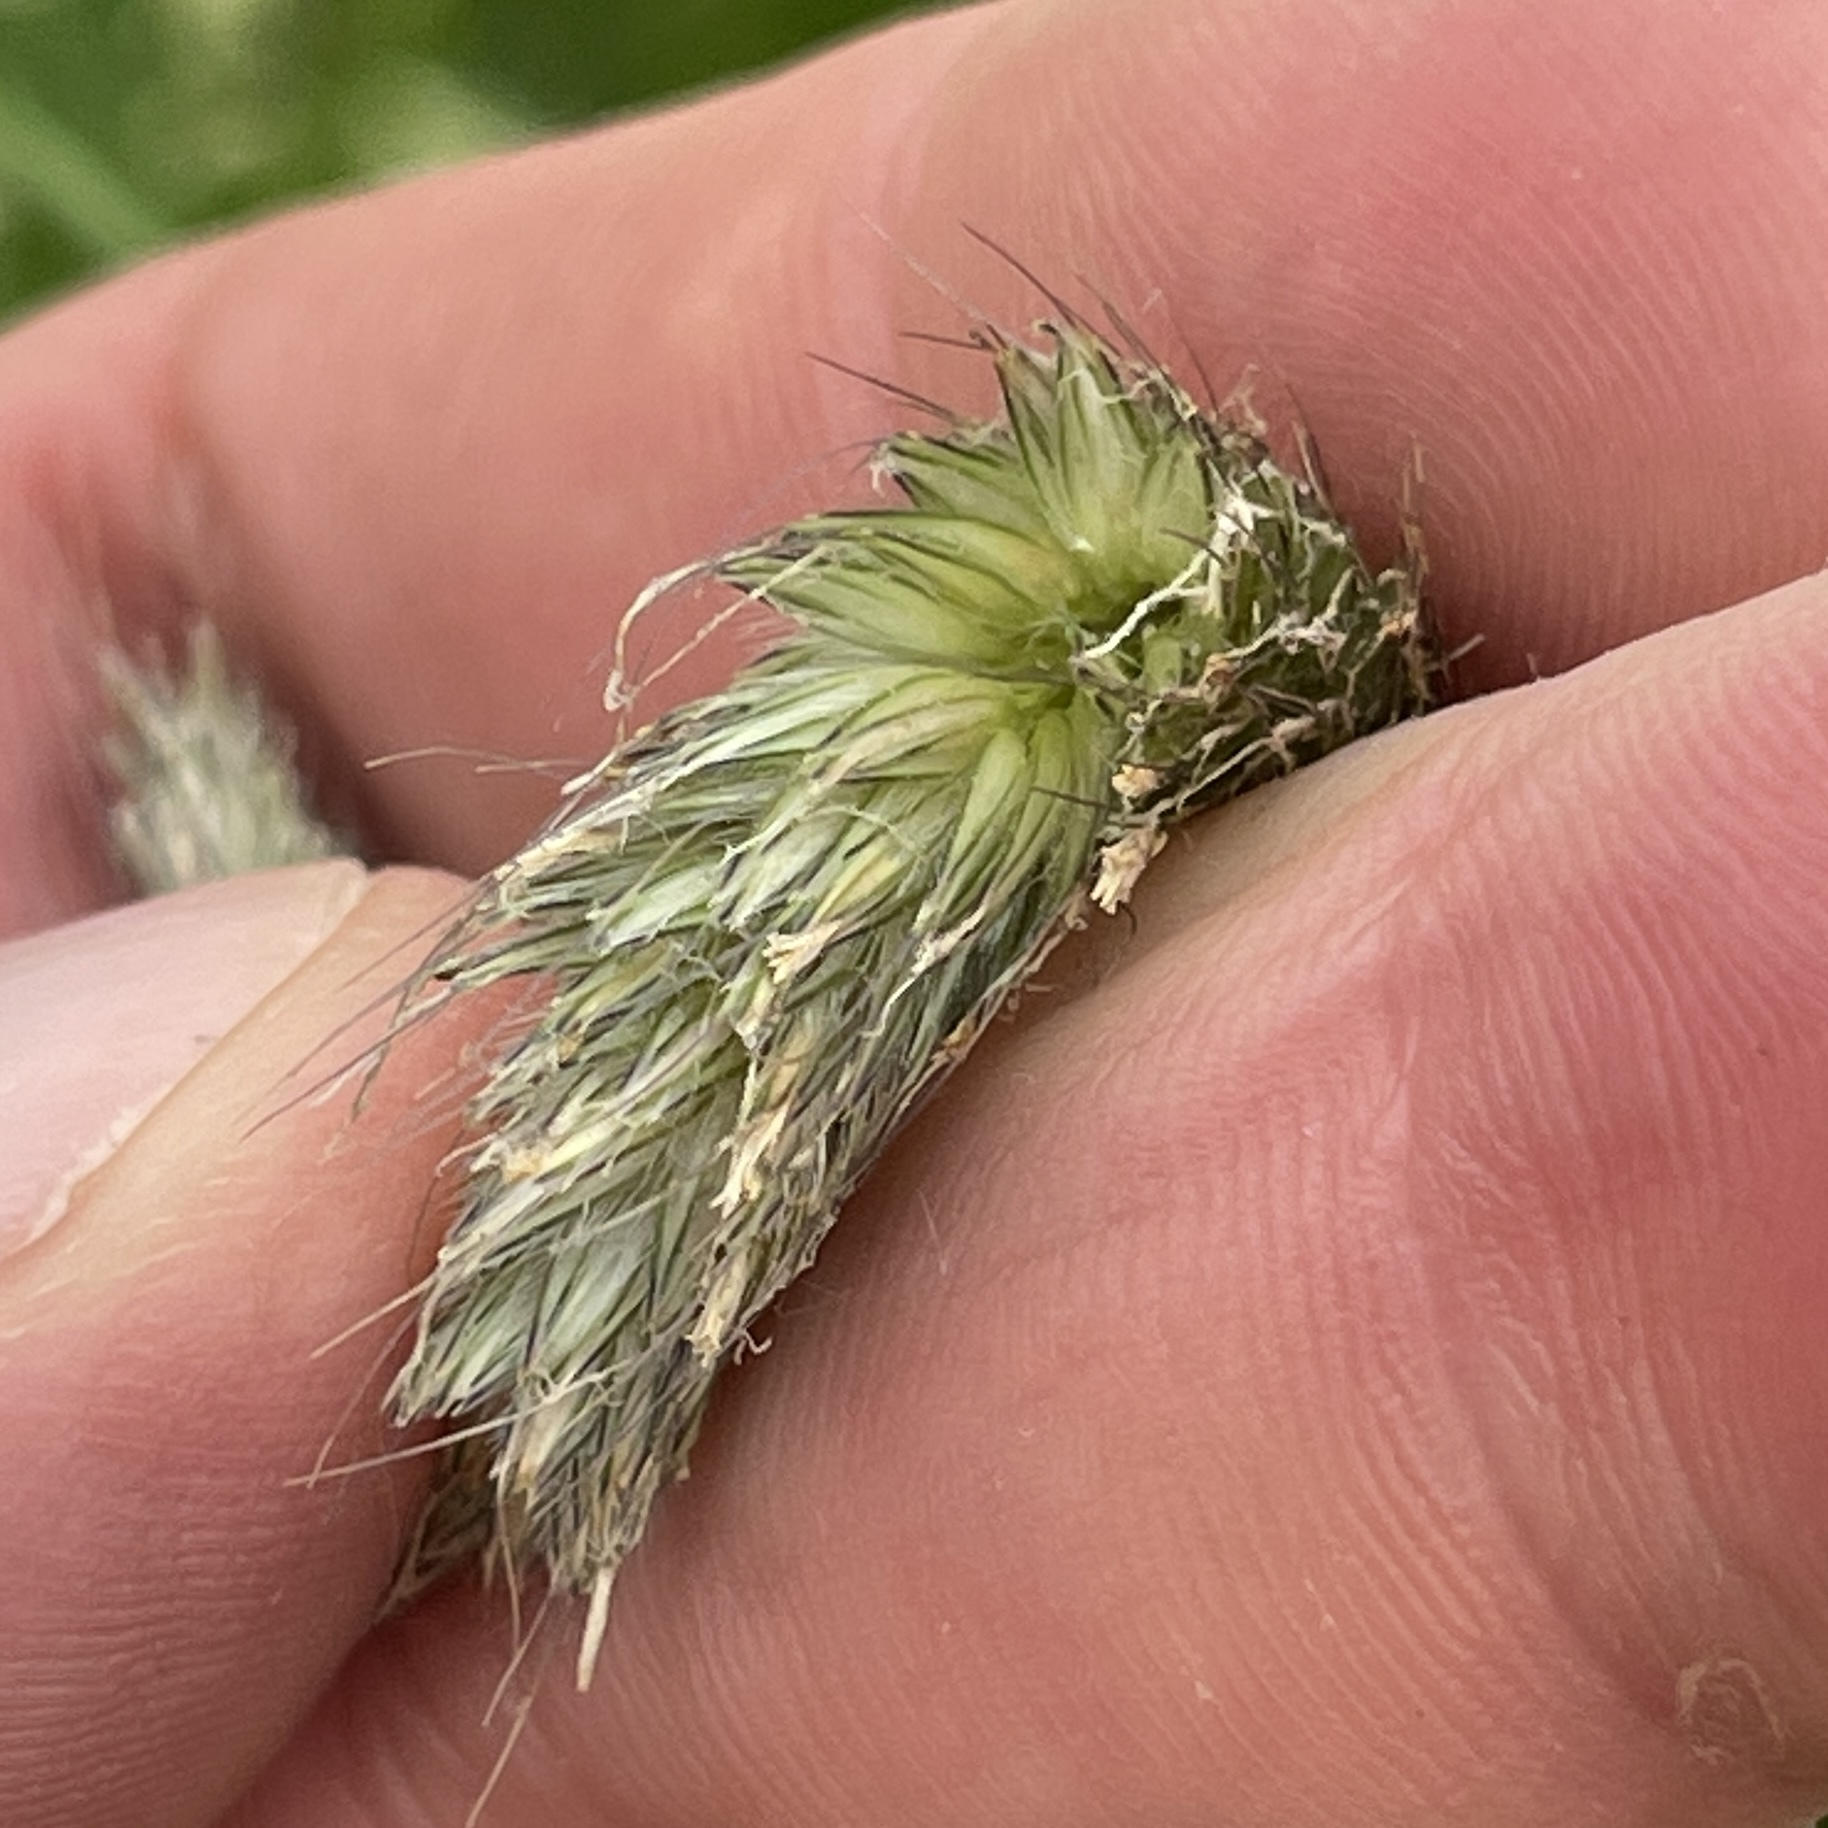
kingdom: Plantae
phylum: Tracheophyta
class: Liliopsida
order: Poales
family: Poaceae
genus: Alopecurus
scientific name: Alopecurus pratensis
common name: Meadow foxtail
